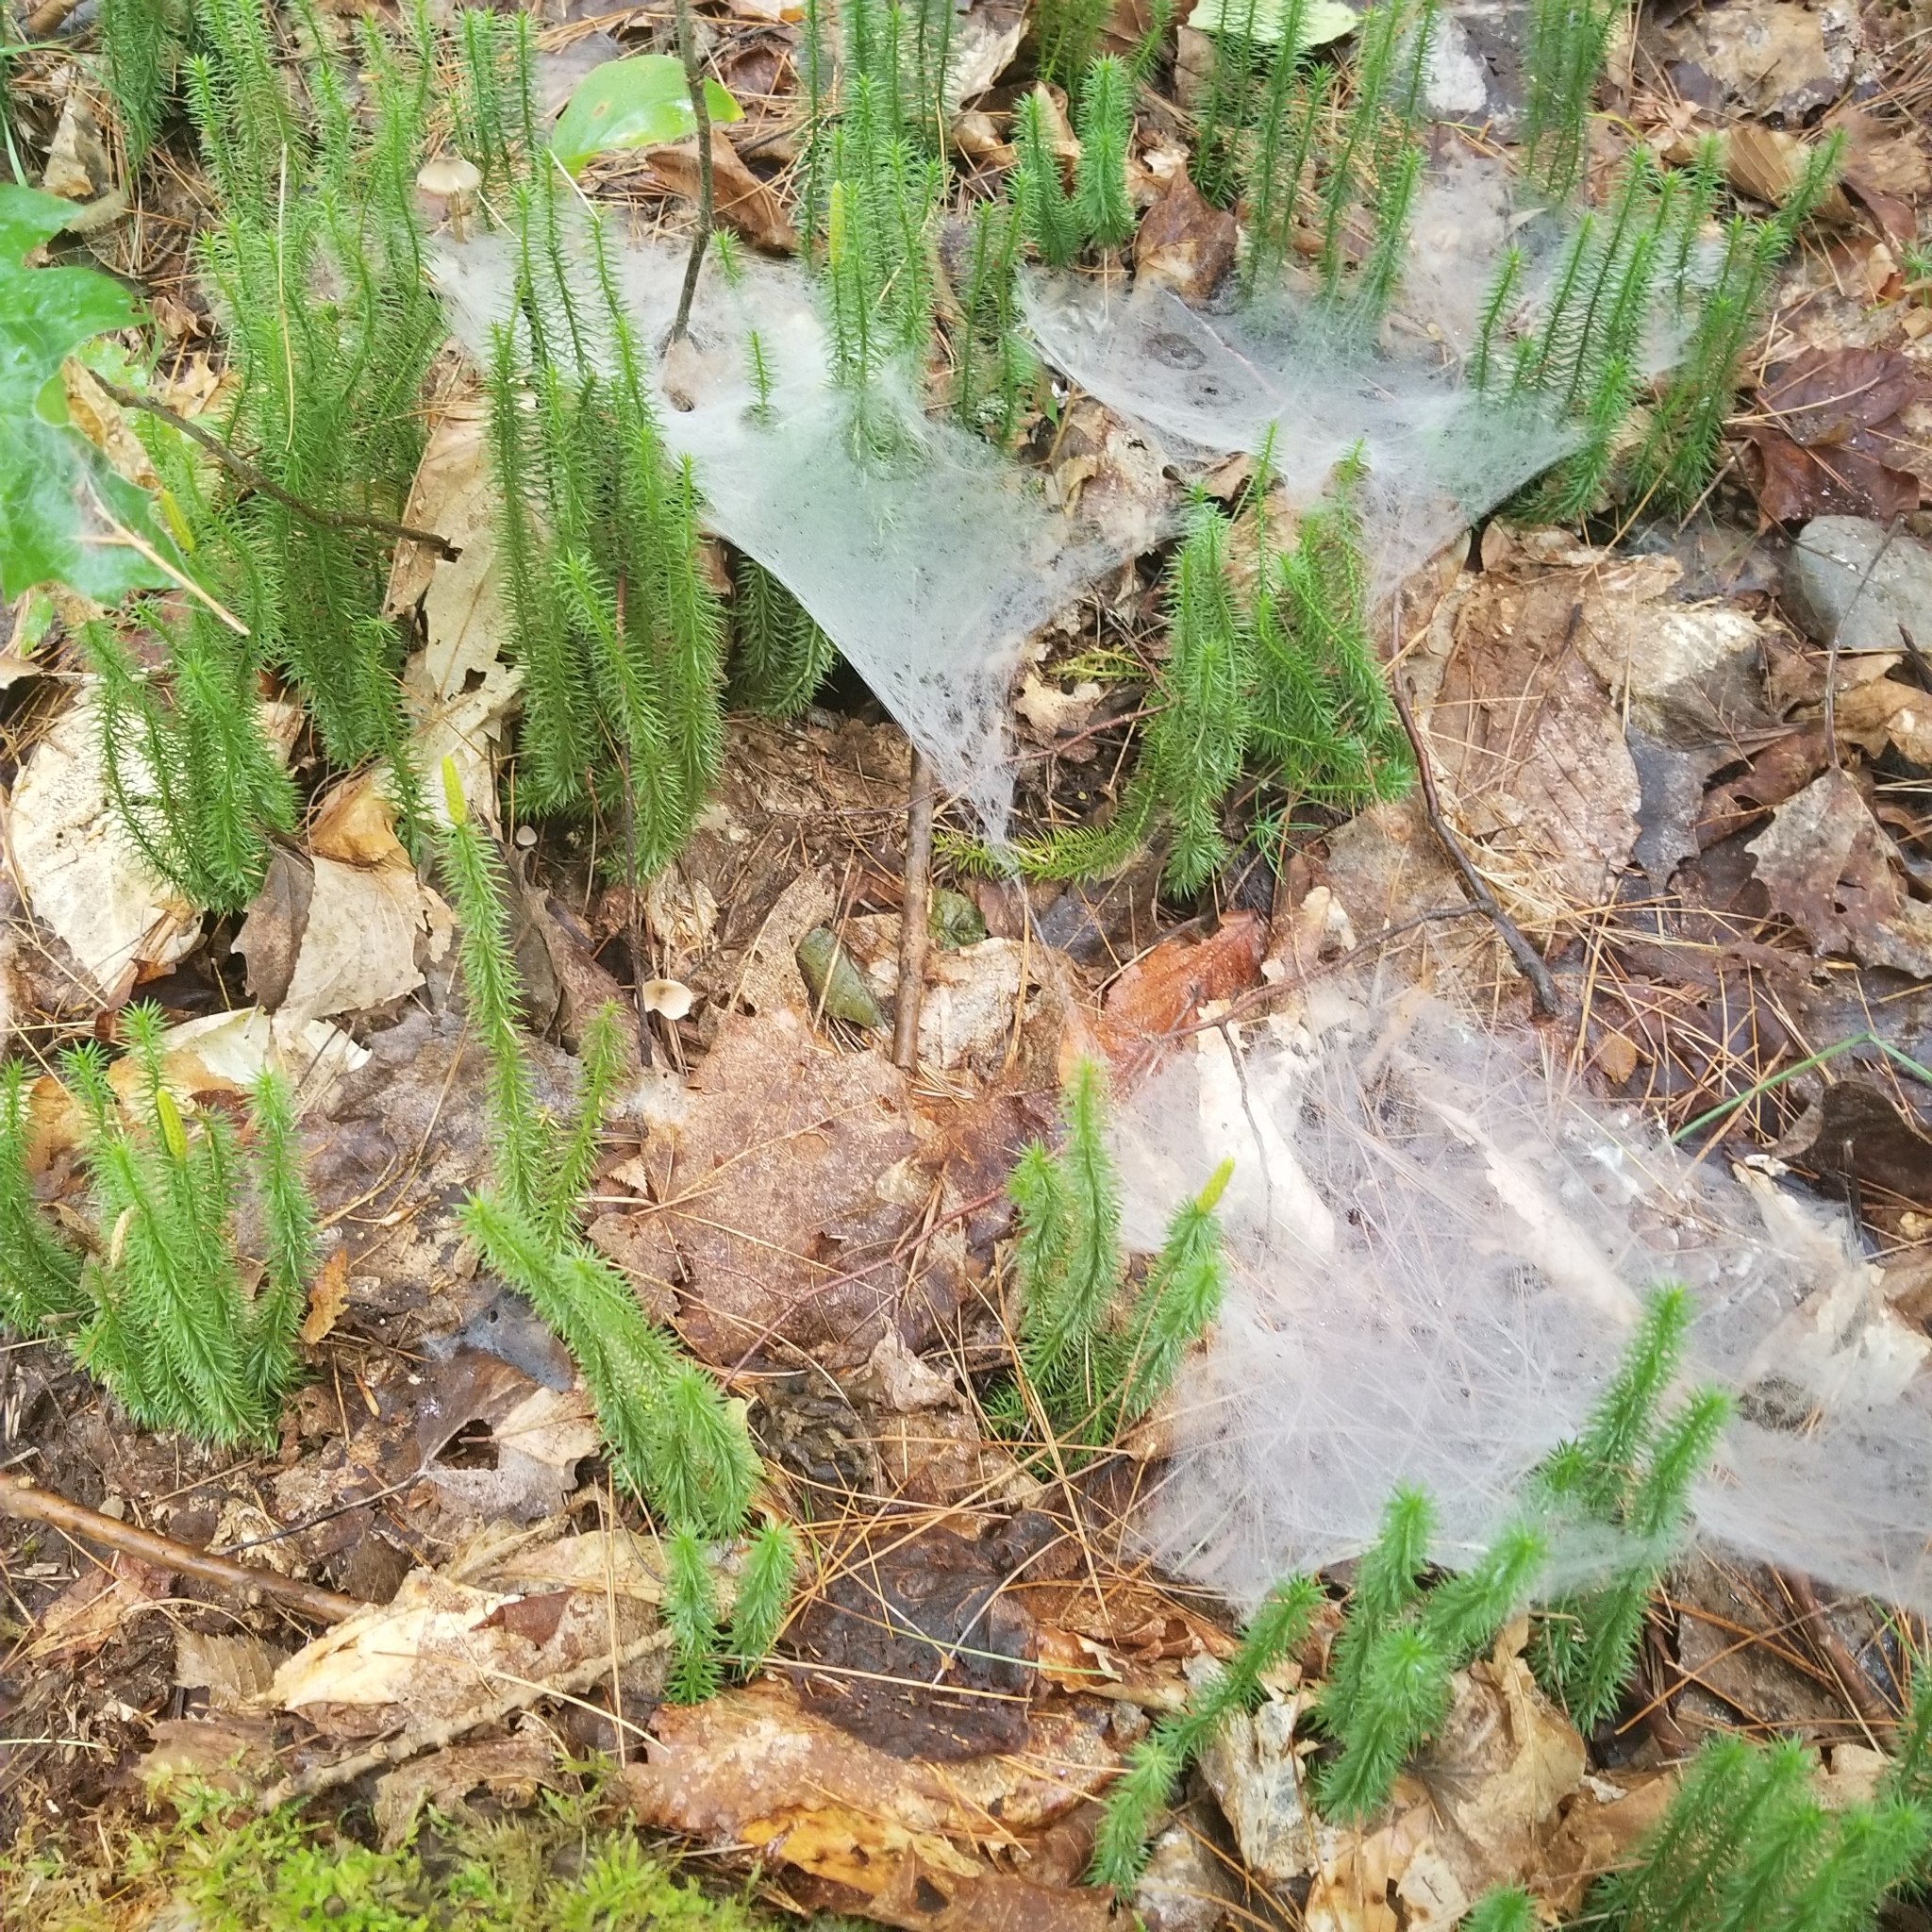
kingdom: Plantae
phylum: Tracheophyta
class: Lycopodiopsida
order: Lycopodiales
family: Lycopodiaceae
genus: Spinulum
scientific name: Spinulum annotinum
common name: Interrupted club-moss
